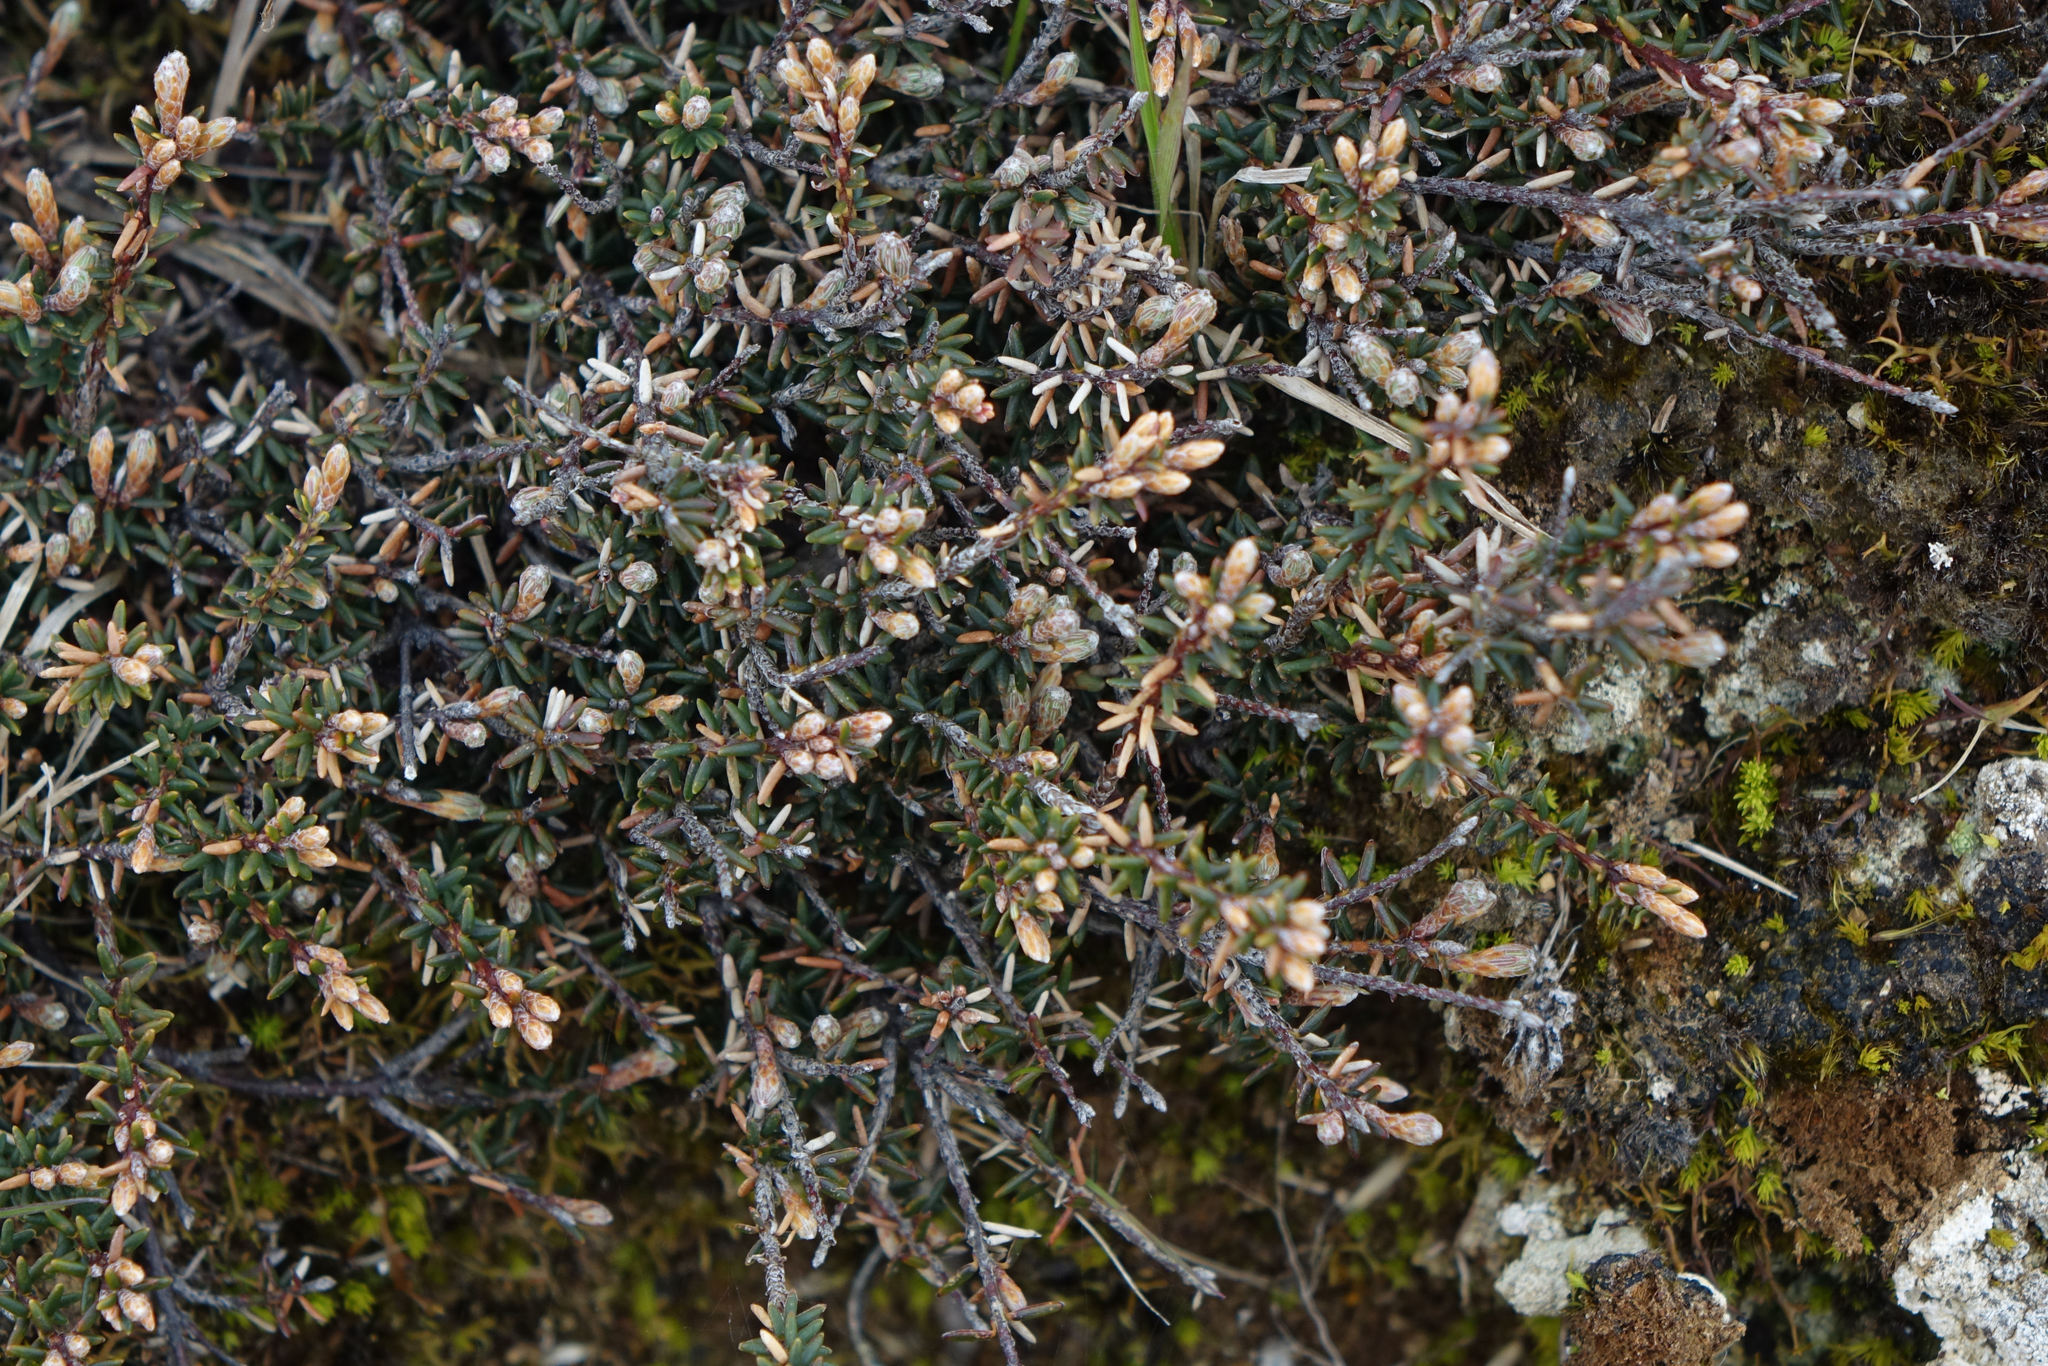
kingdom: Plantae
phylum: Tracheophyta
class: Magnoliopsida
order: Ericales
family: Ericaceae
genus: Androstoma
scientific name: Androstoma empetrifolia
